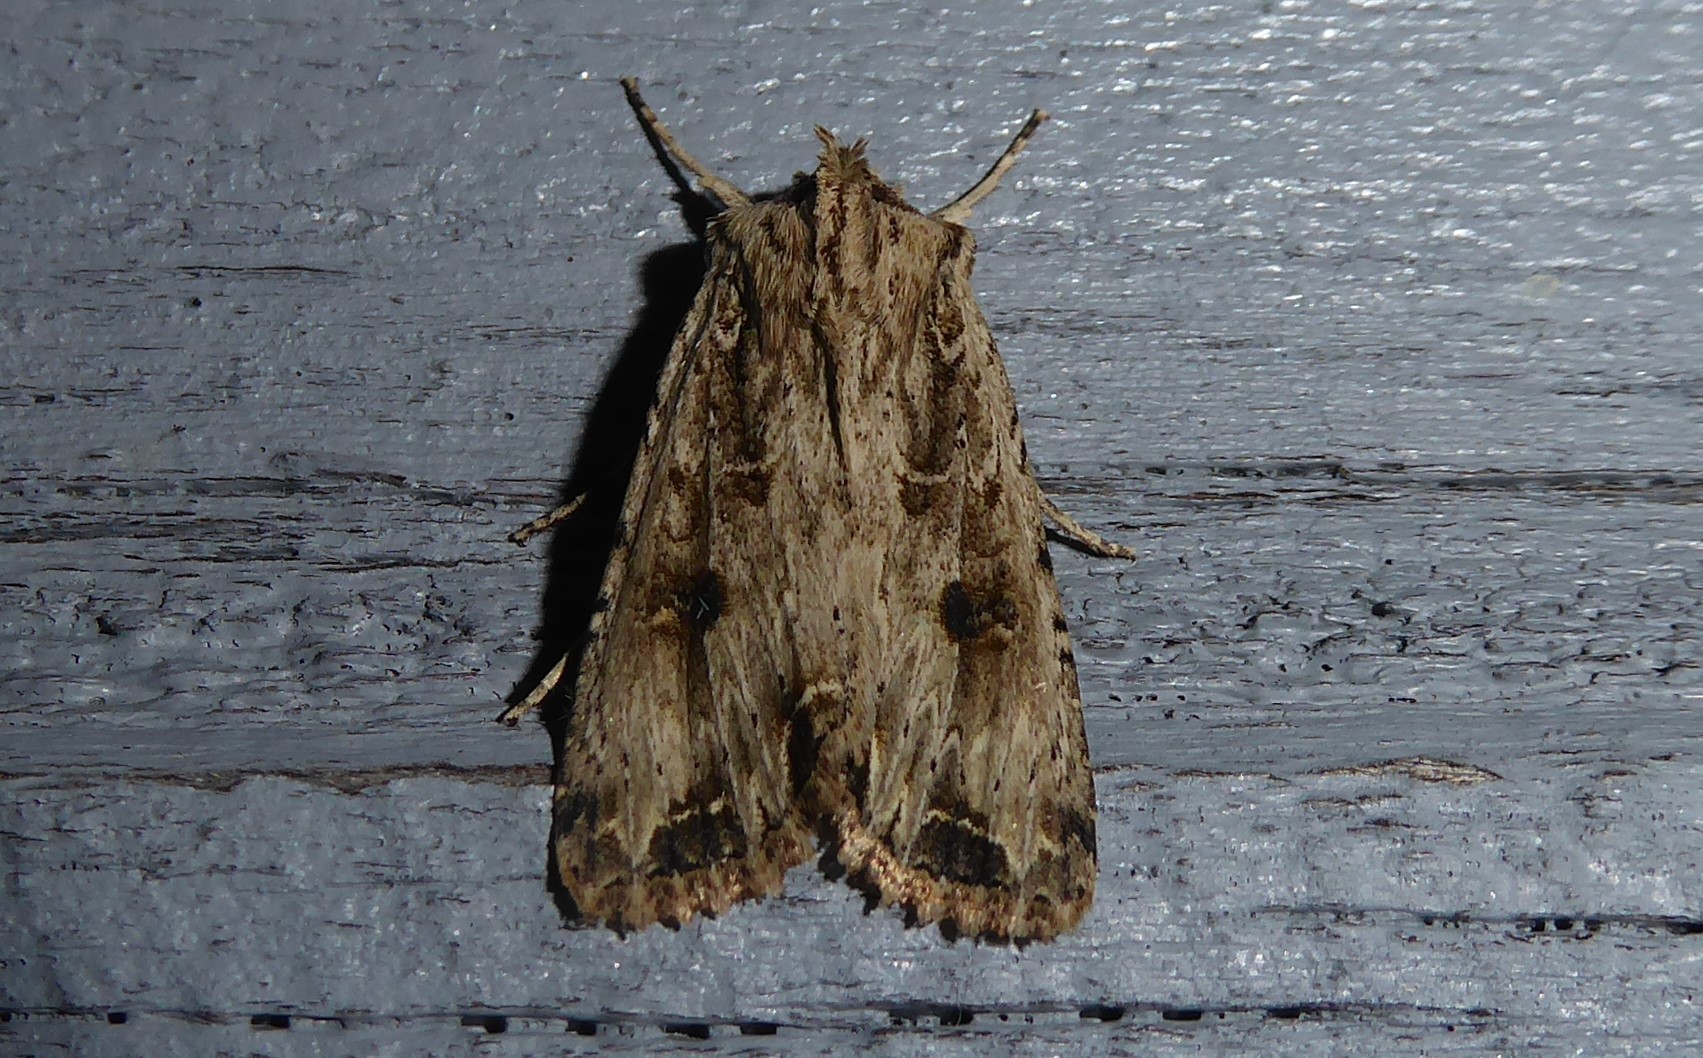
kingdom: Animalia
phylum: Arthropoda
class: Insecta
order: Lepidoptera
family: Noctuidae
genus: Ichneutica
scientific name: Ichneutica lignana
